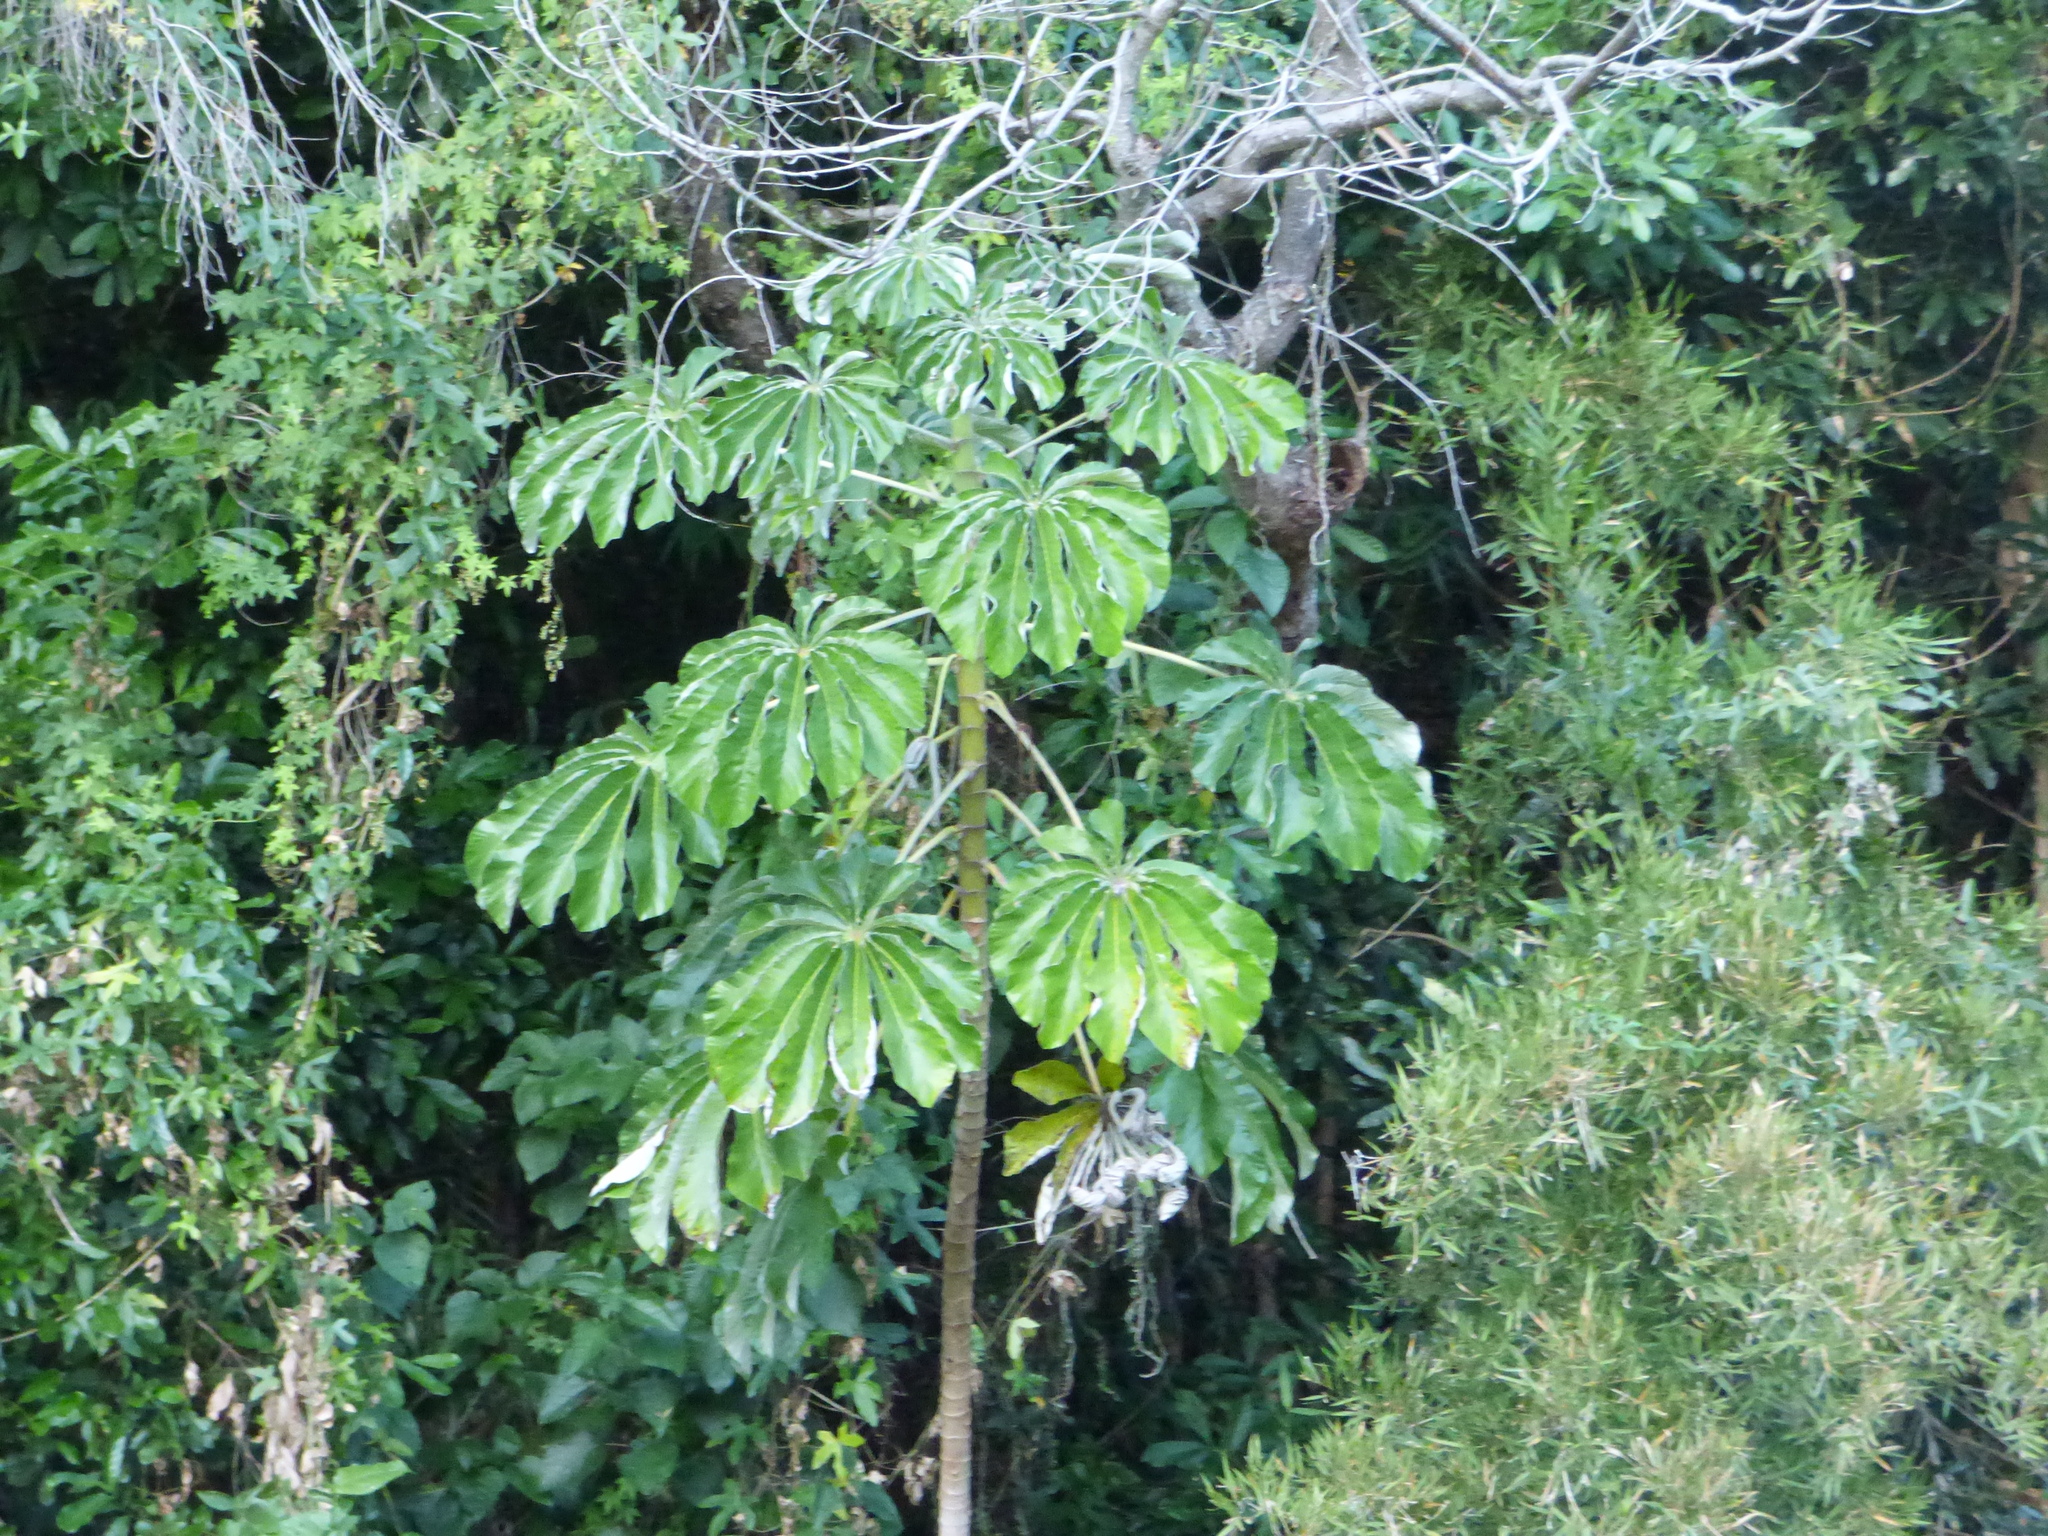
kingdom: Plantae
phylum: Tracheophyta
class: Magnoliopsida
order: Rosales
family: Urticaceae
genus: Cecropia
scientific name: Cecropia pachystachya
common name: Ambay pumpwood
